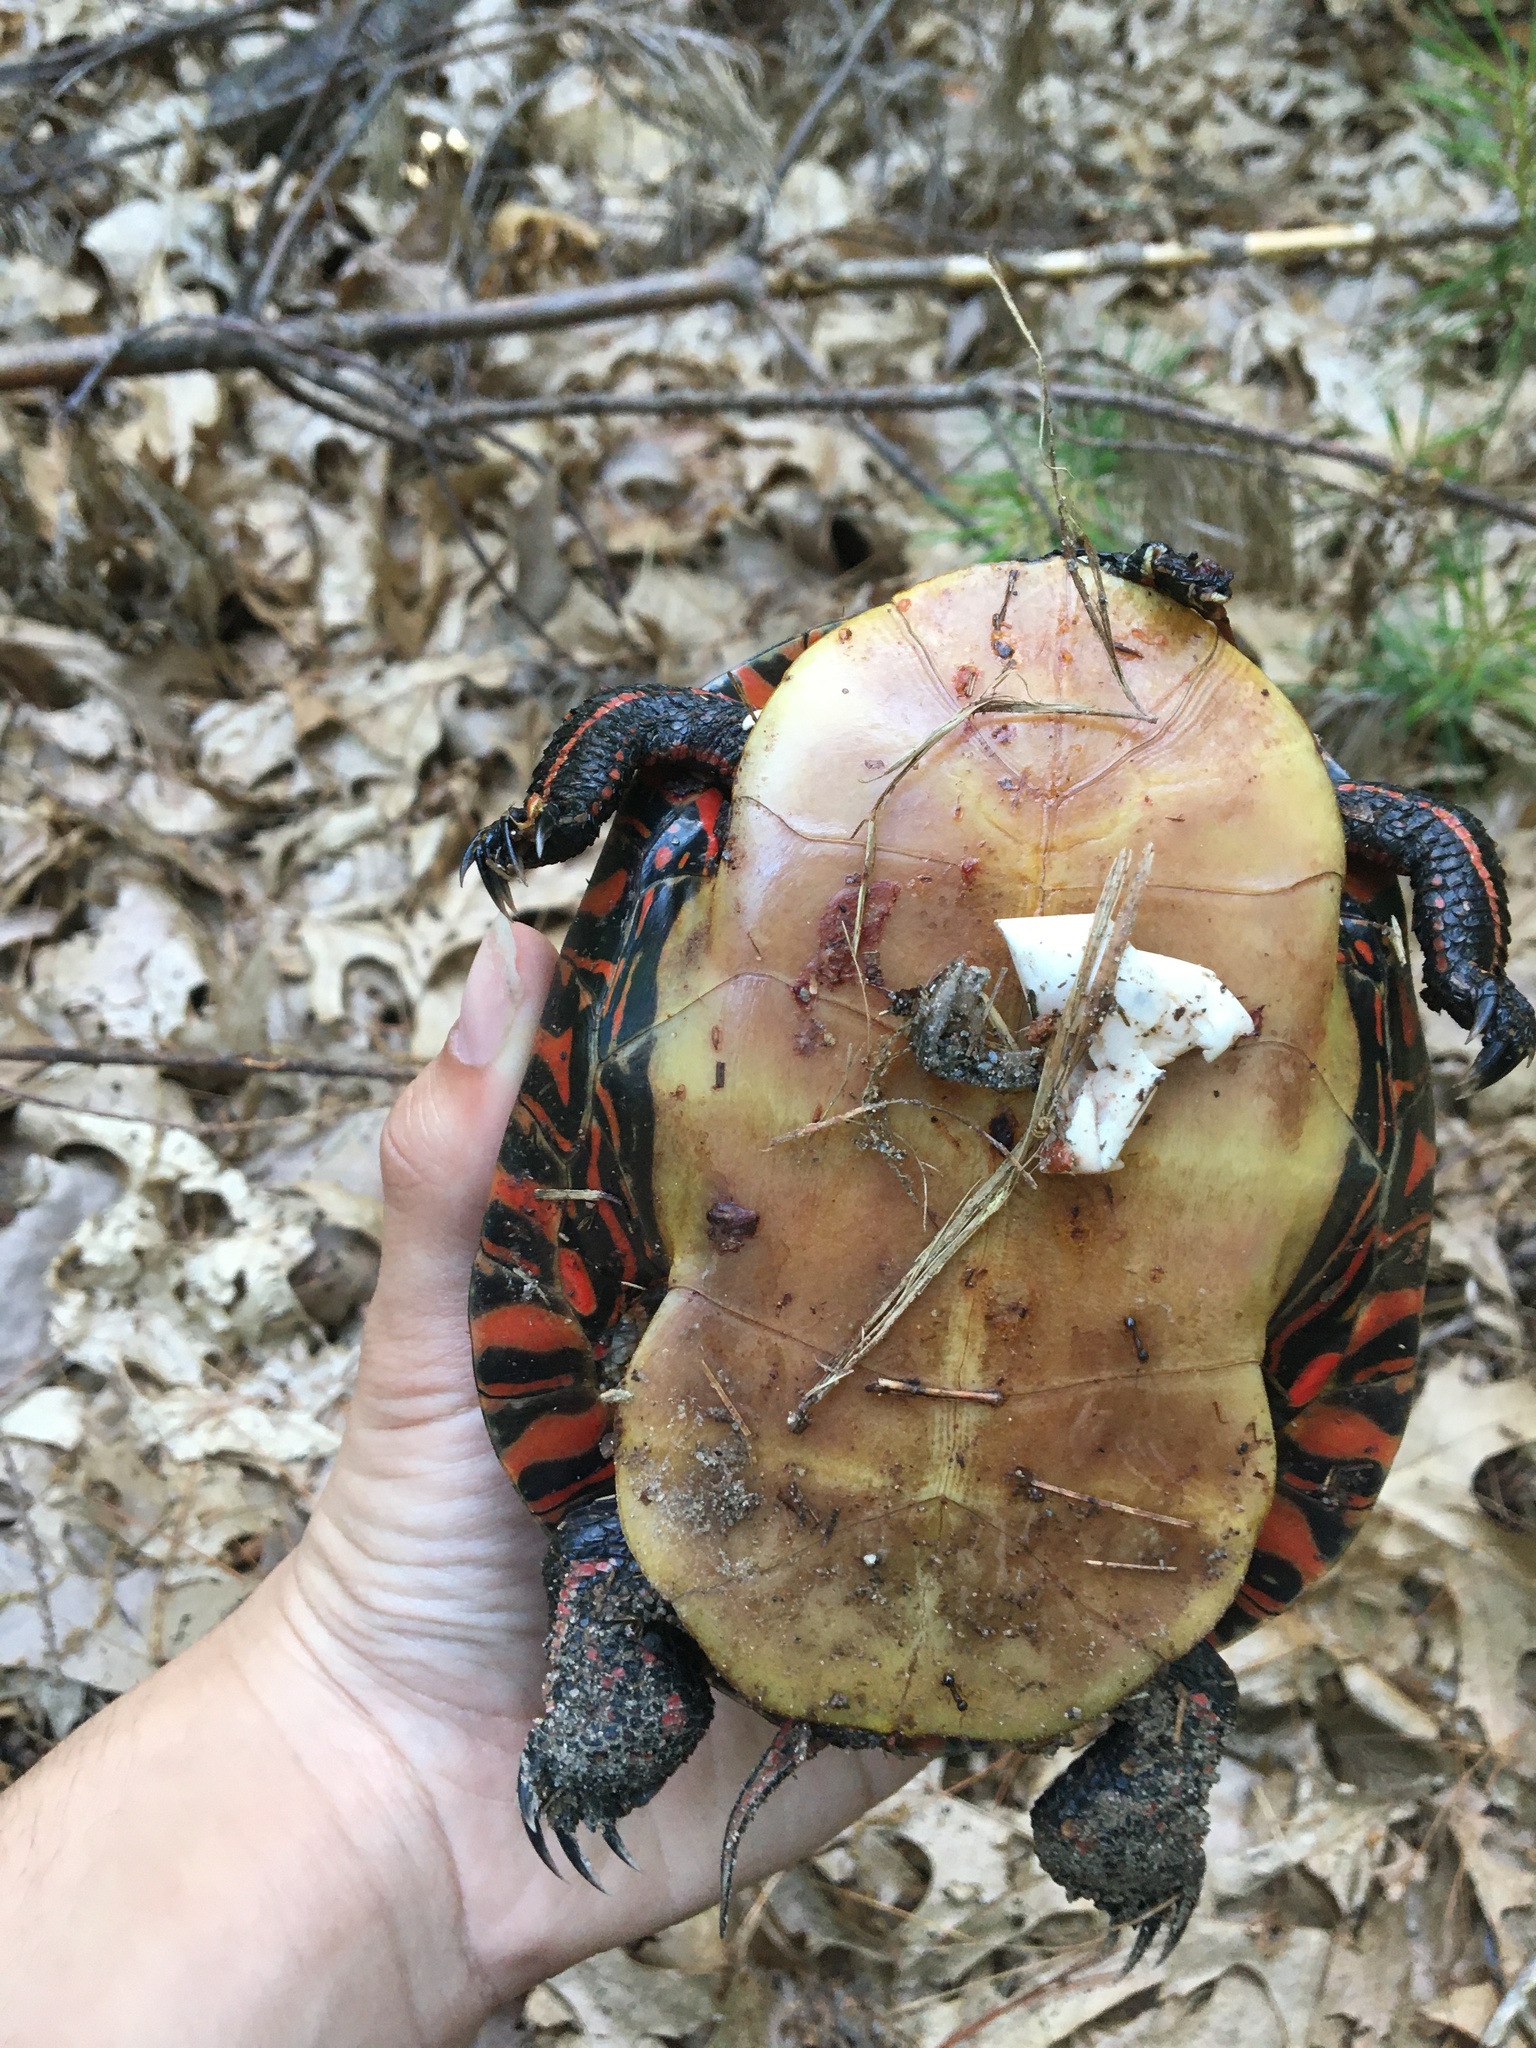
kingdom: Animalia
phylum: Chordata
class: Testudines
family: Emydidae
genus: Chrysemys
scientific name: Chrysemys picta
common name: Painted turtle
